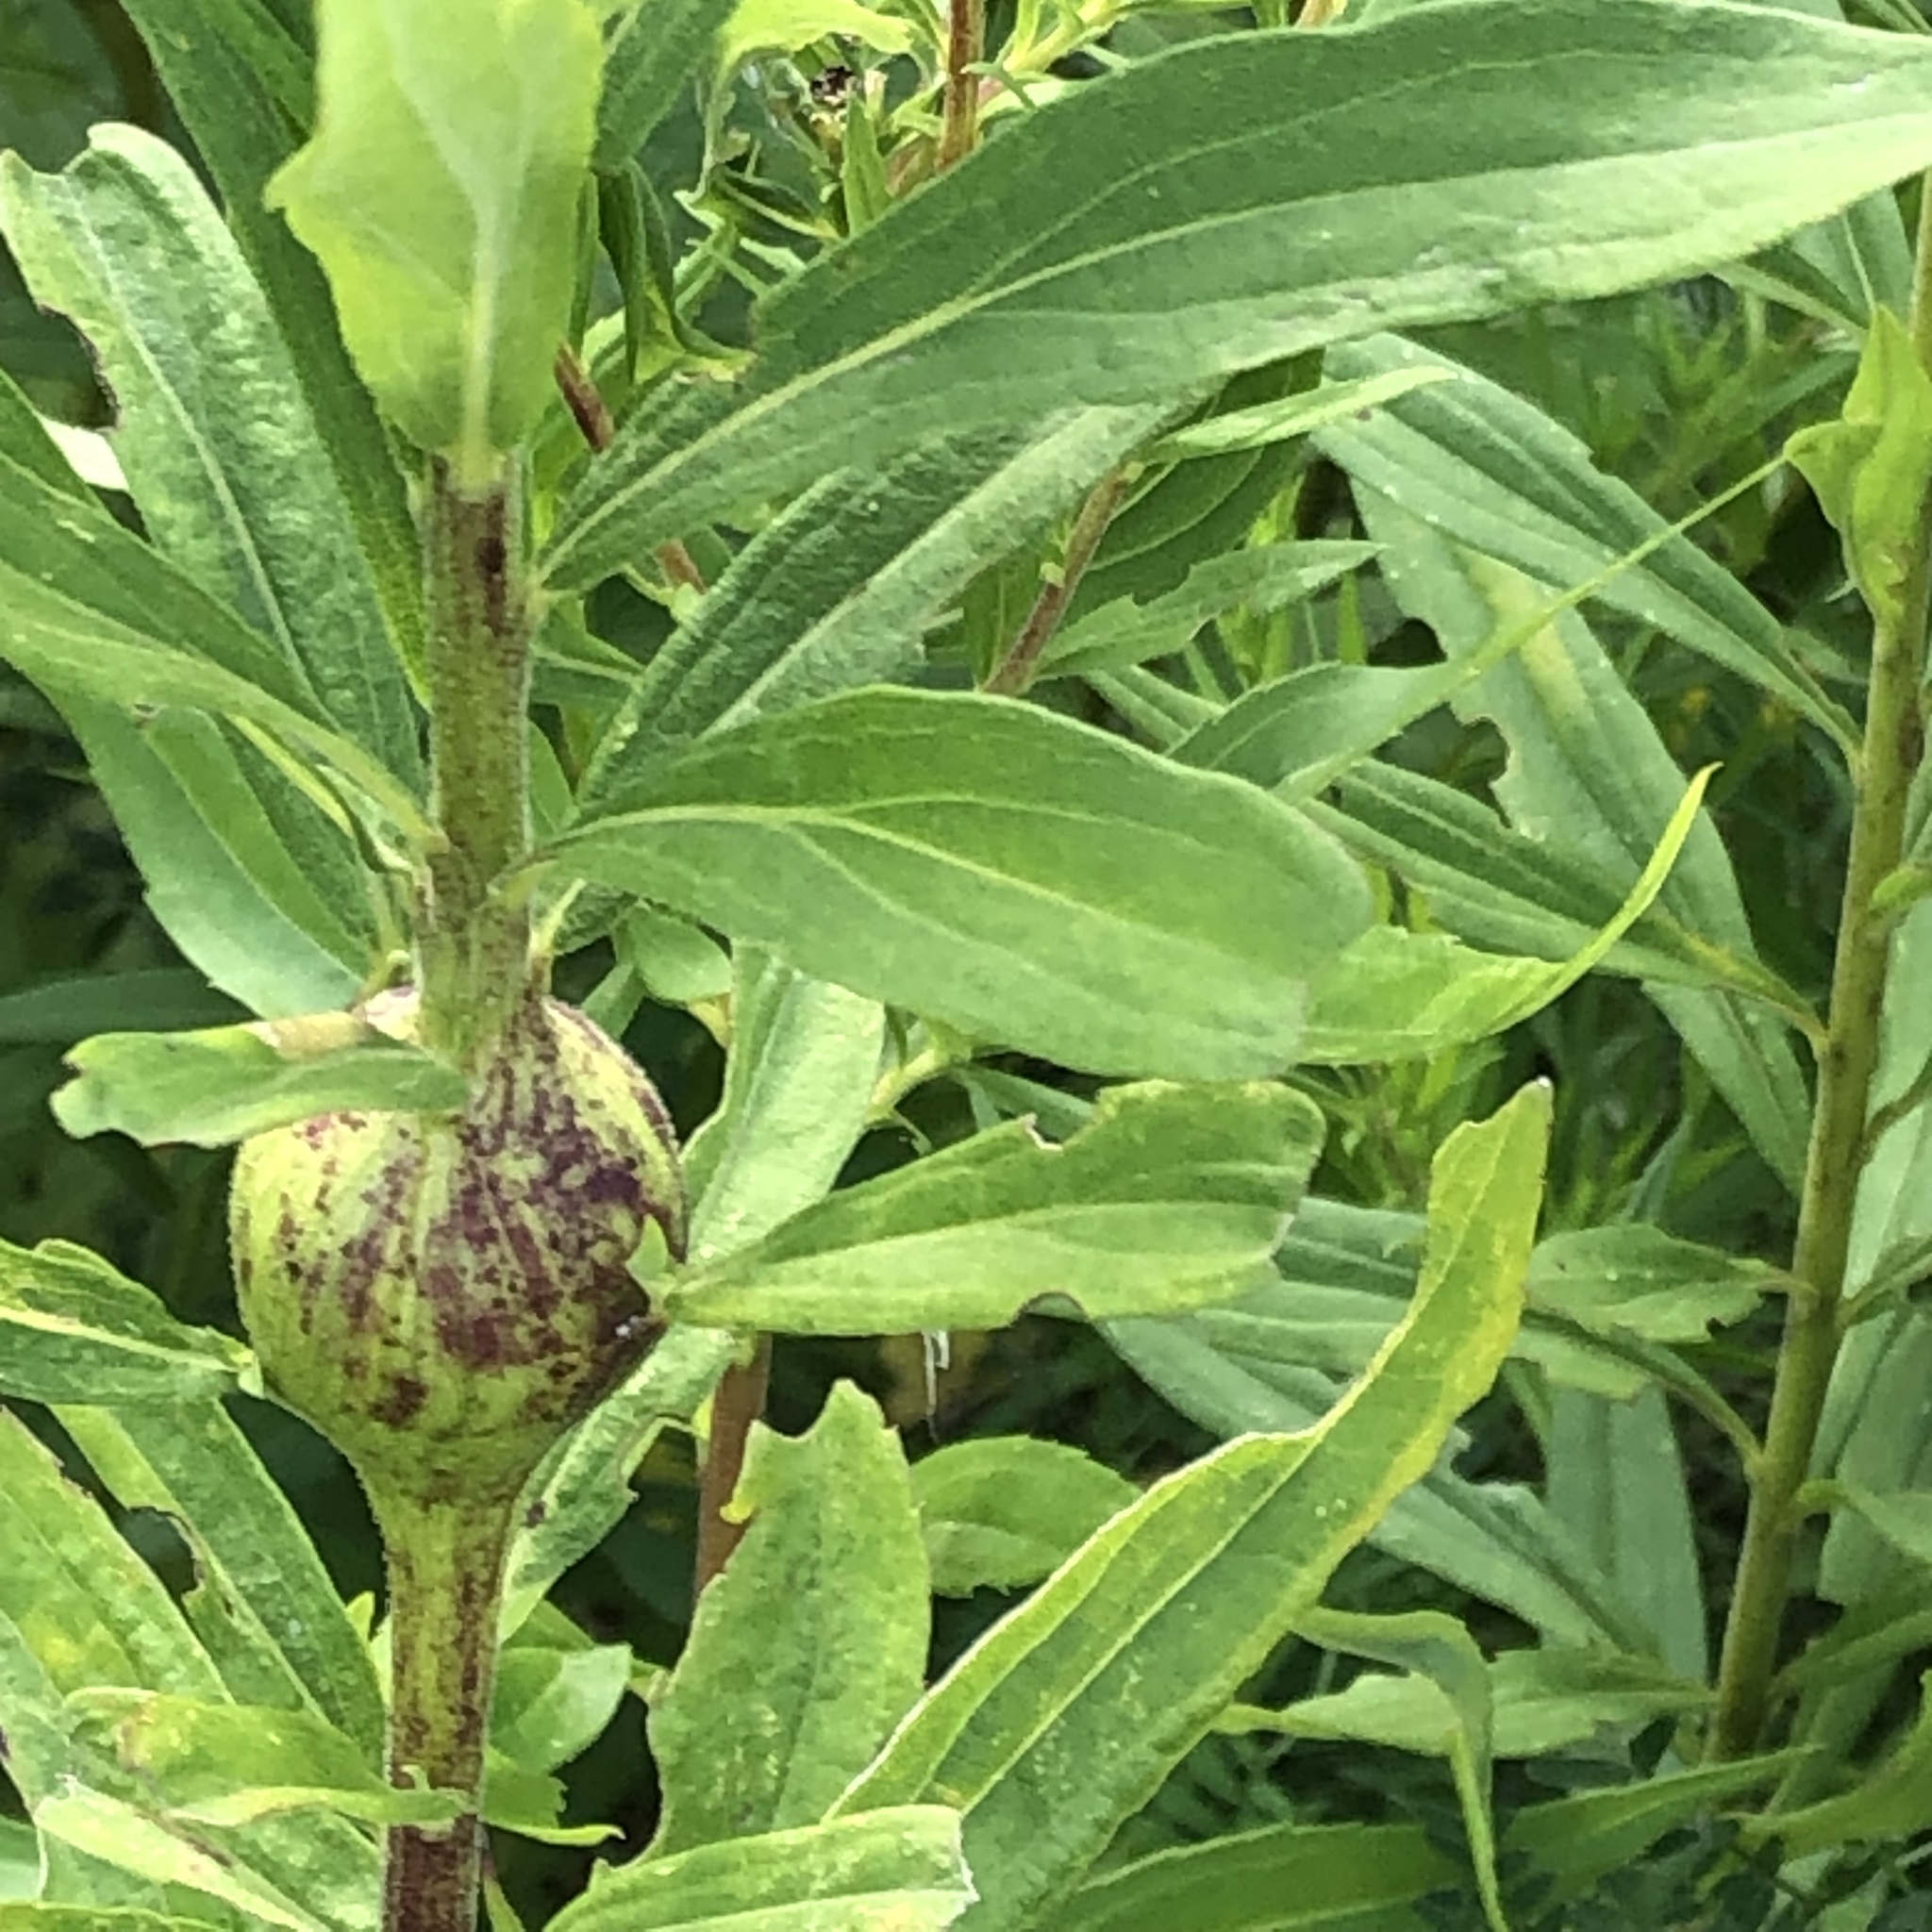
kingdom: Animalia
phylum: Arthropoda
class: Insecta
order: Diptera
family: Tephritidae
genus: Eurosta
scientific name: Eurosta solidaginis
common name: Goldenrod gall fly
